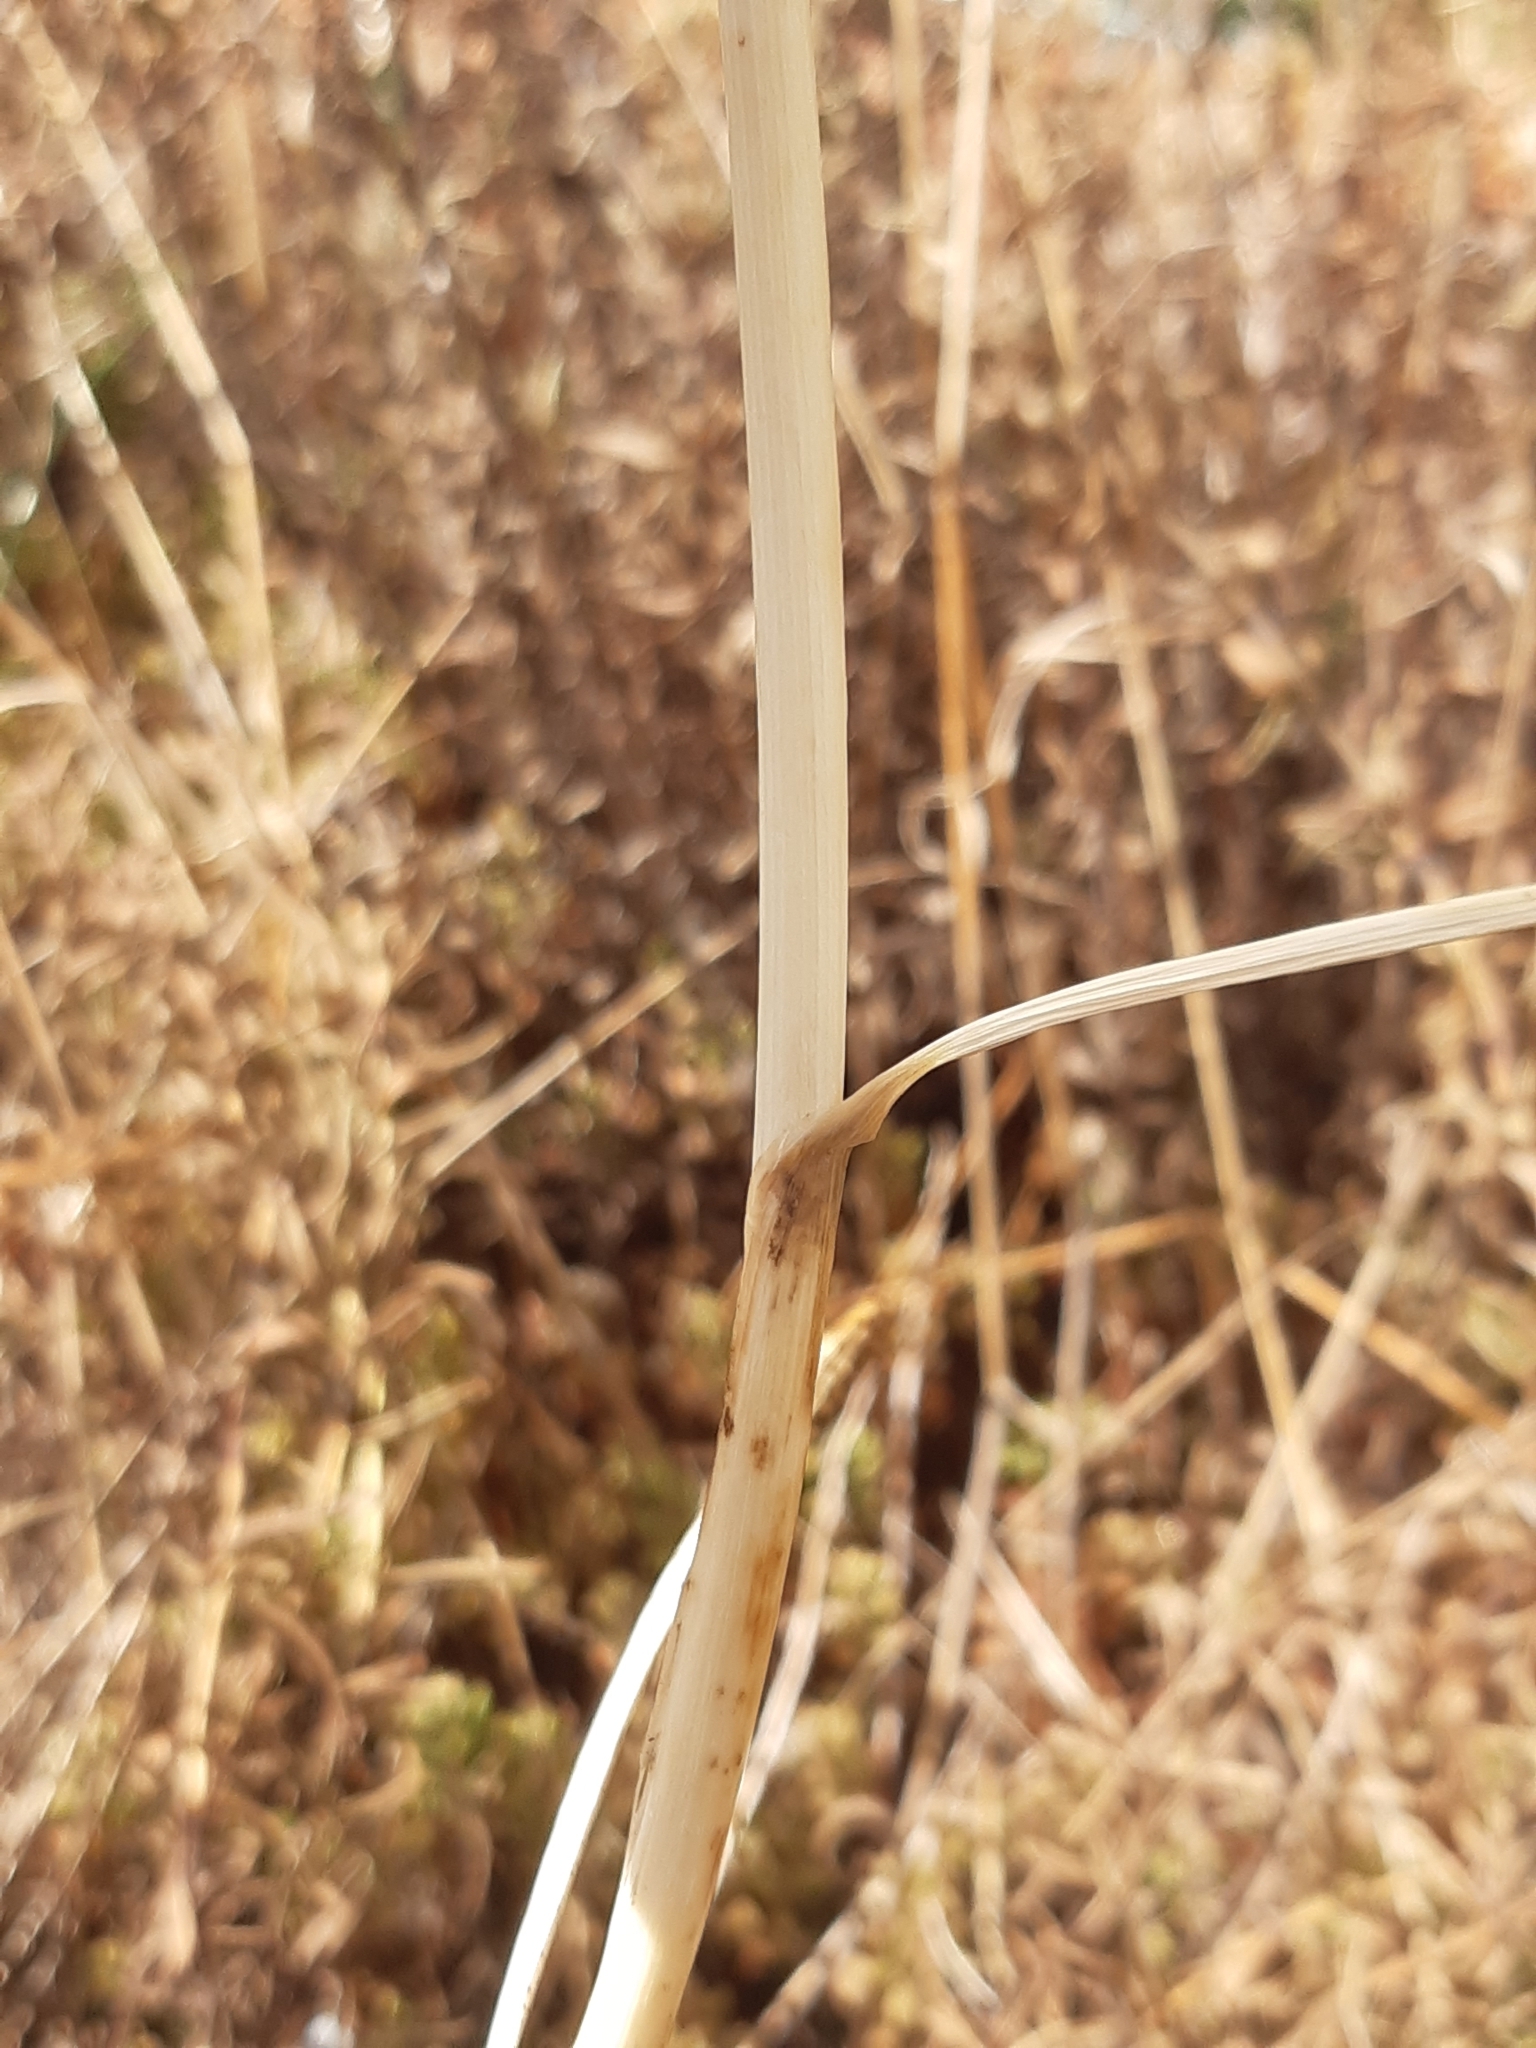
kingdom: Plantae
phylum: Tracheophyta
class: Liliopsida
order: Asparagales
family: Amaryllidaceae
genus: Allium
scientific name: Allium sphaerocephalon
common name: Round-headed leek
